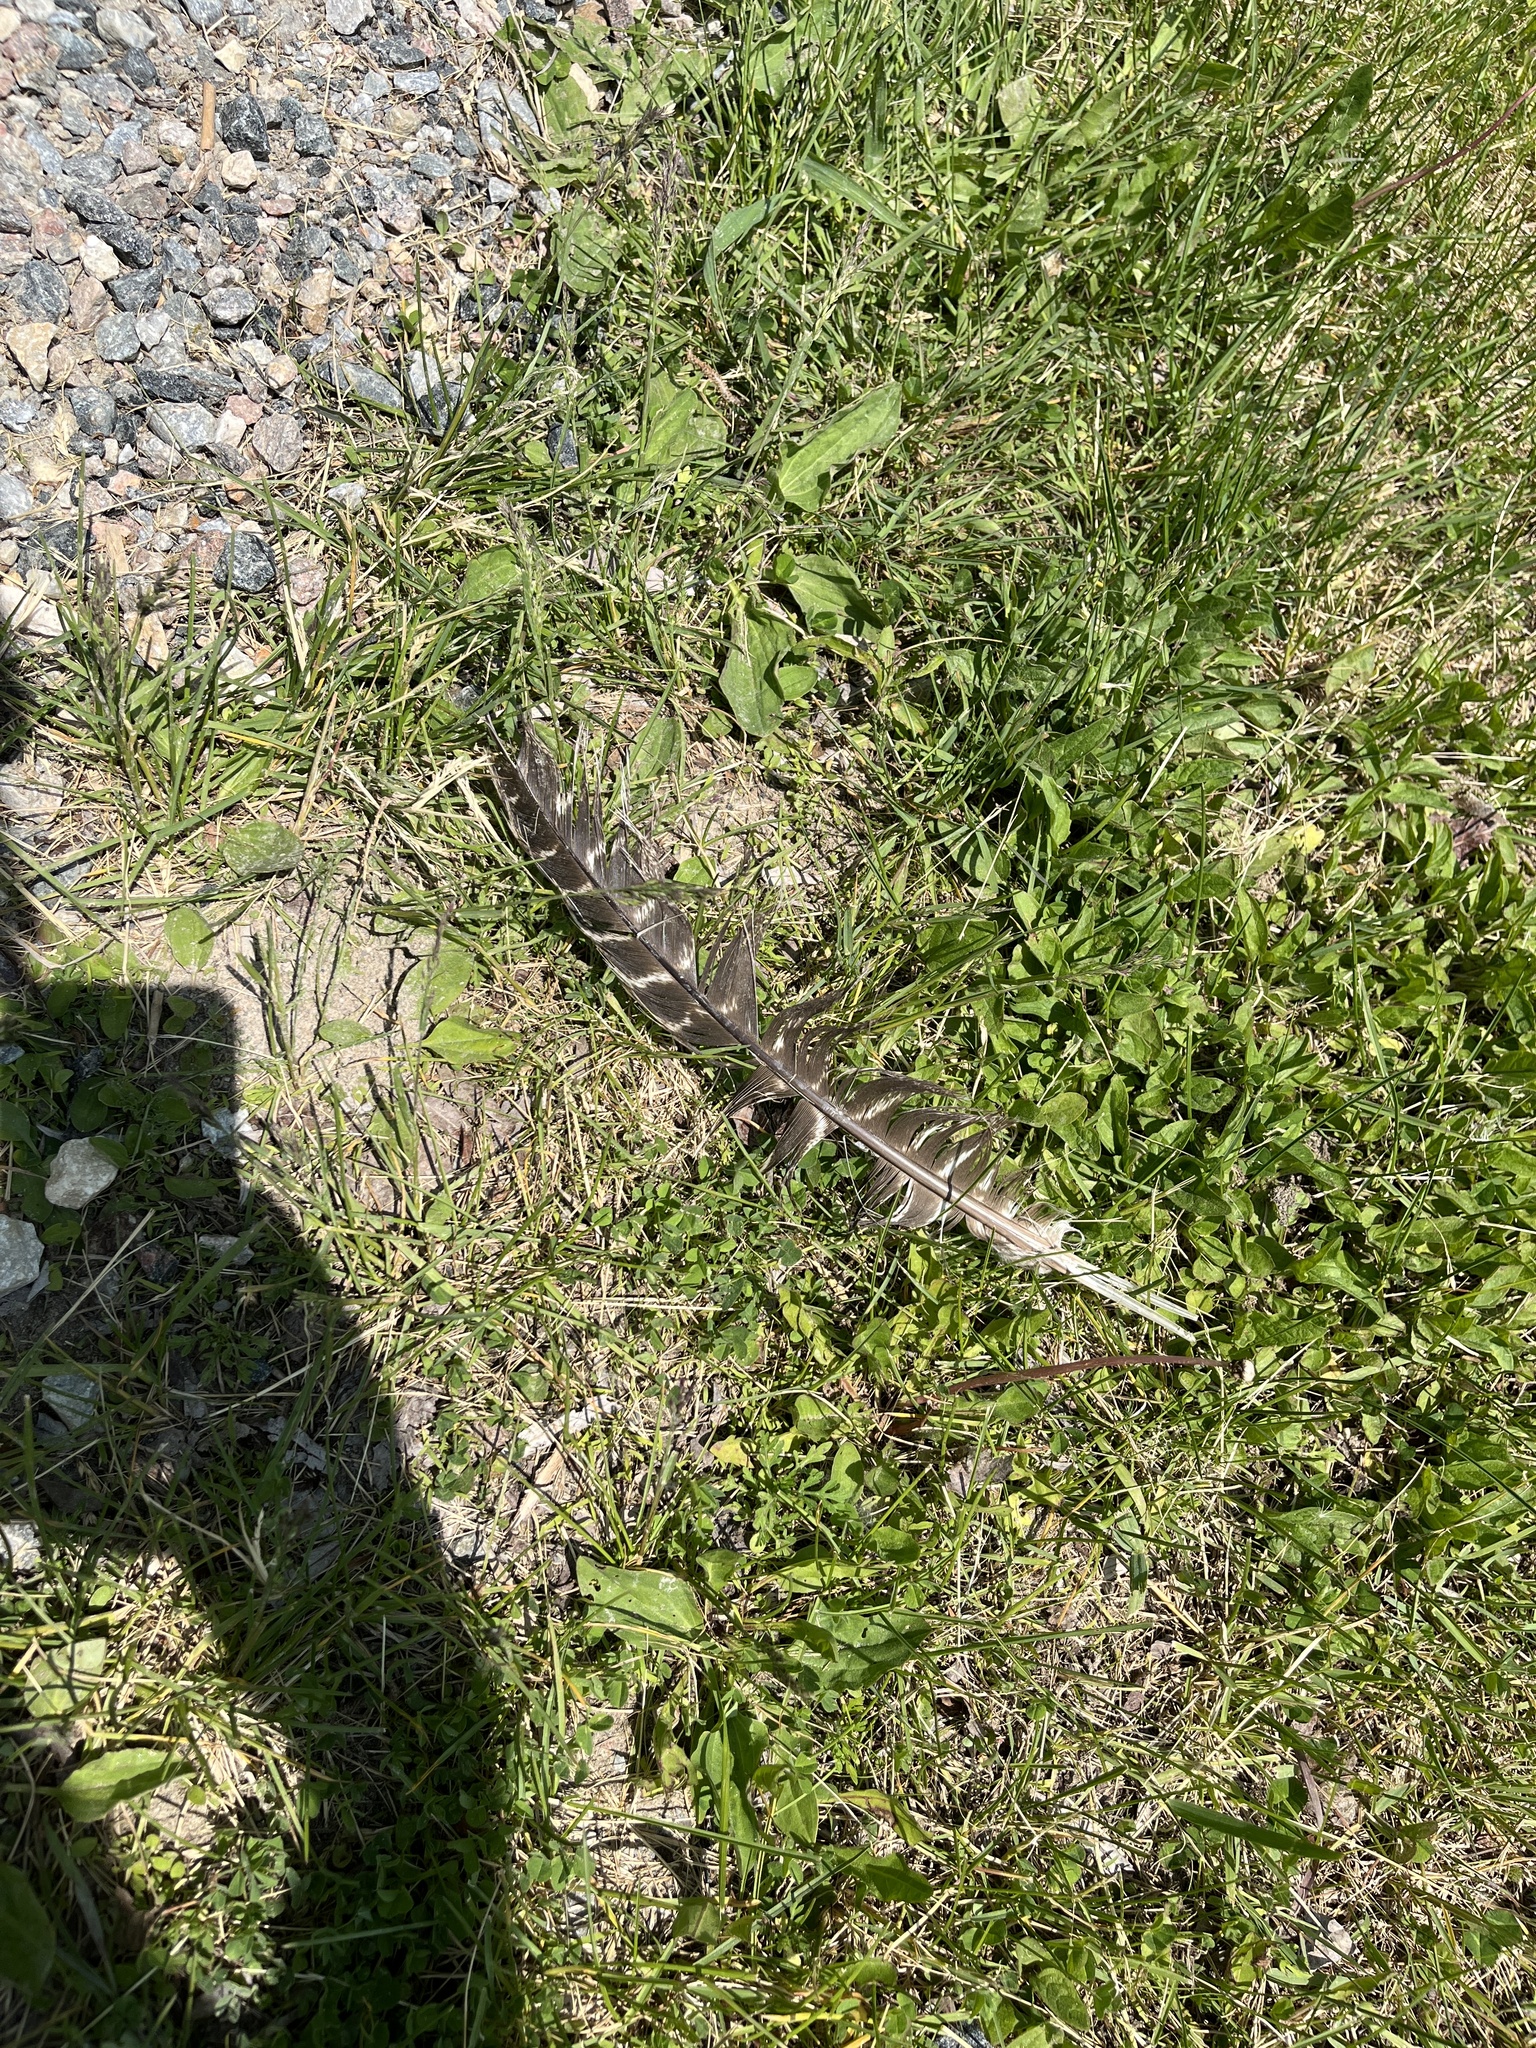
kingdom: Animalia
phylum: Chordata
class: Aves
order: Galliformes
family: Phasianidae
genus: Meleagris
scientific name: Meleagris gallopavo
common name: Wild turkey
